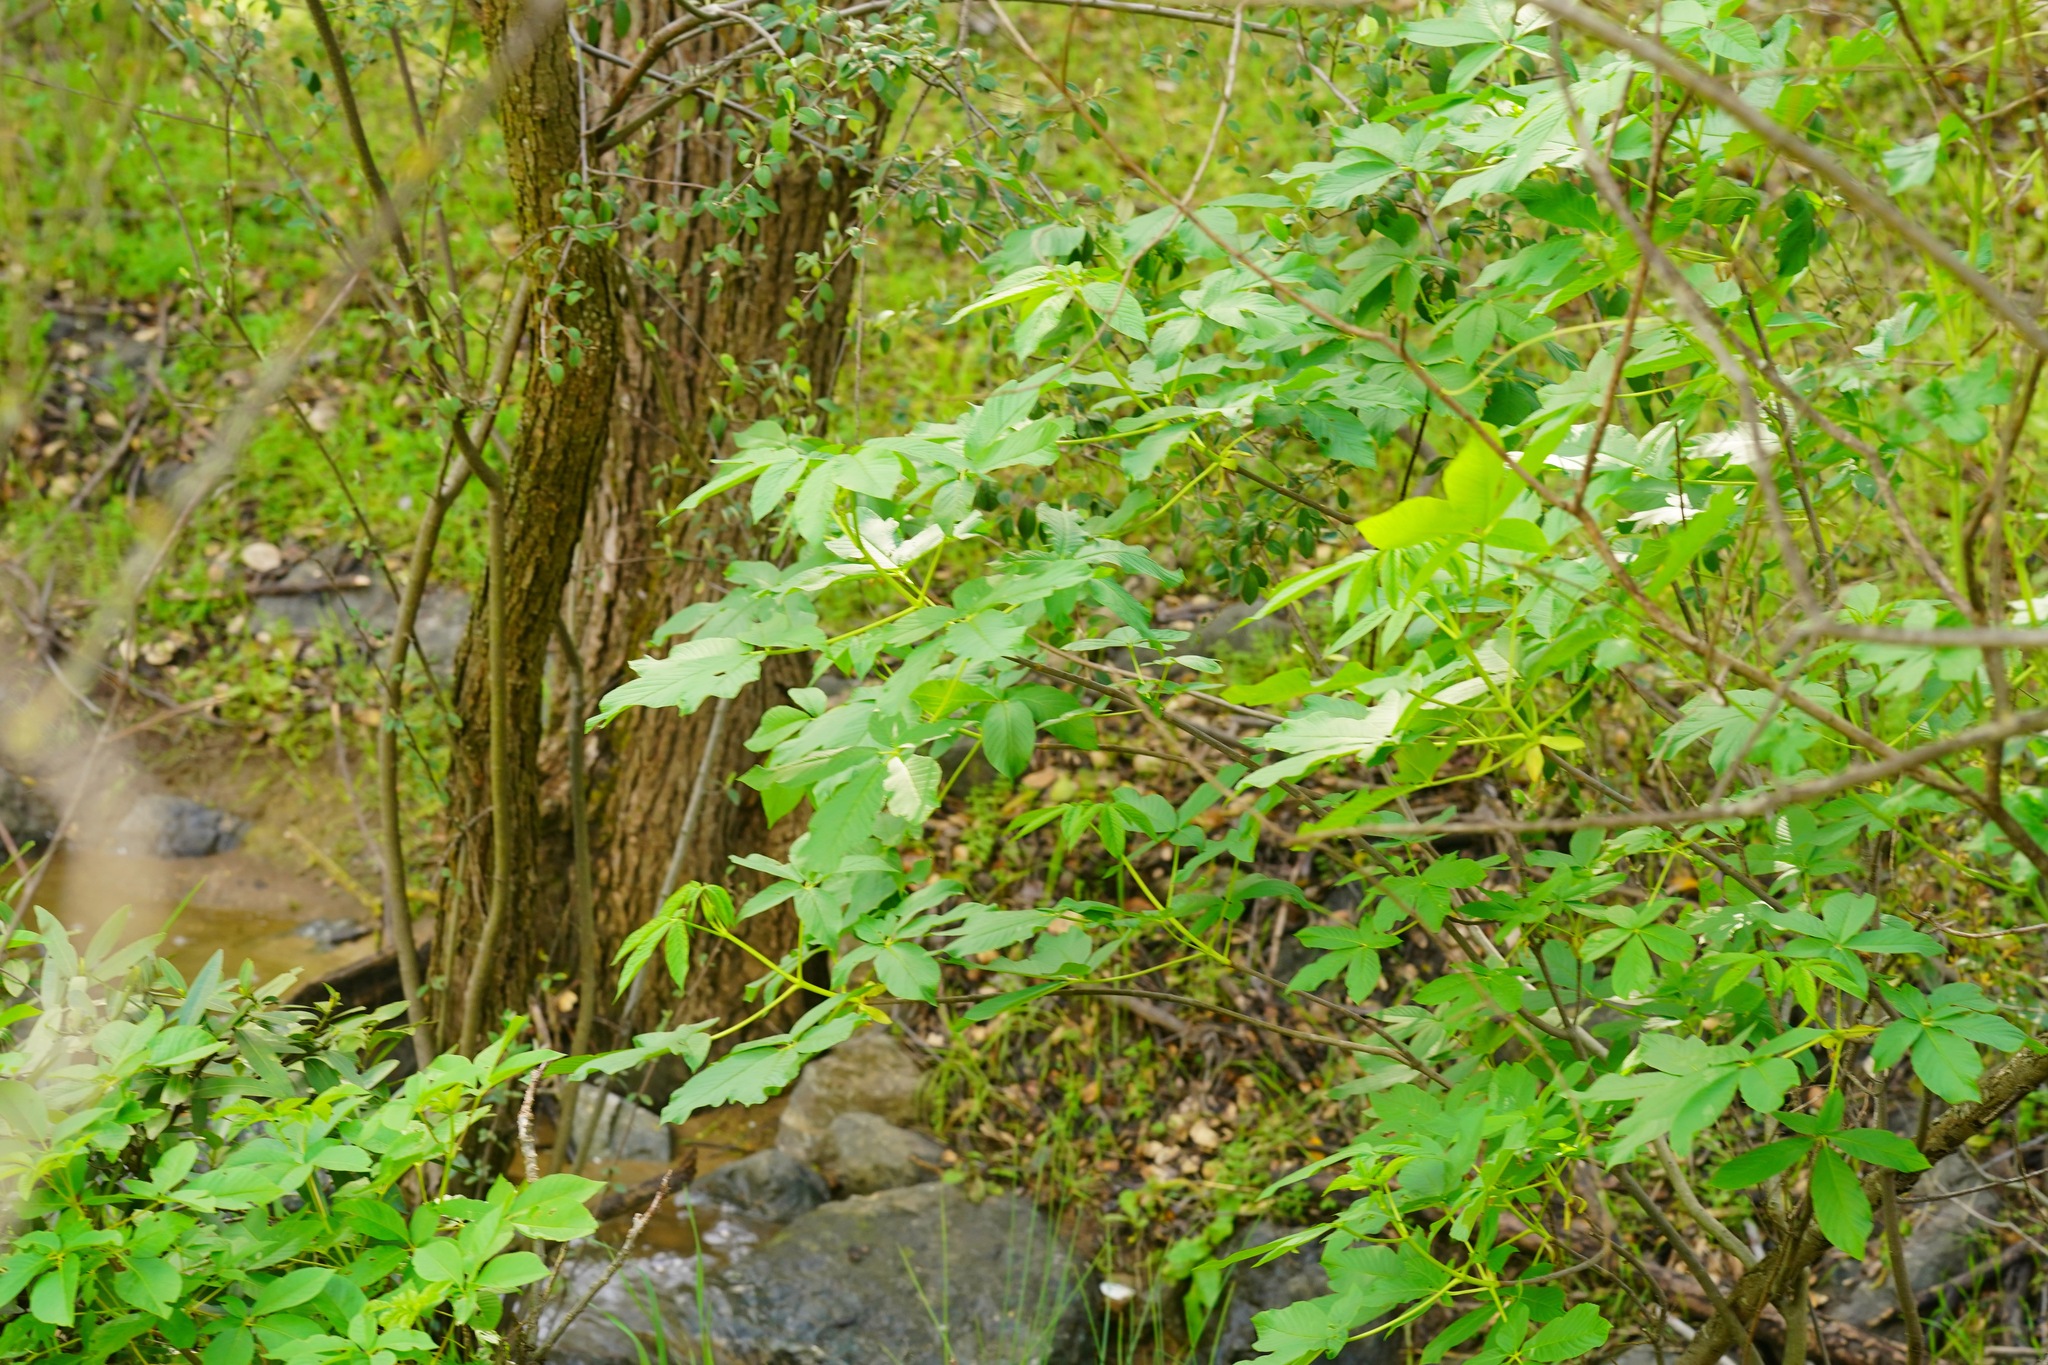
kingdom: Plantae
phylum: Tracheophyta
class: Magnoliopsida
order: Sapindales
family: Sapindaceae
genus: Aesculus
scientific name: Aesculus californica
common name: California buckeye
